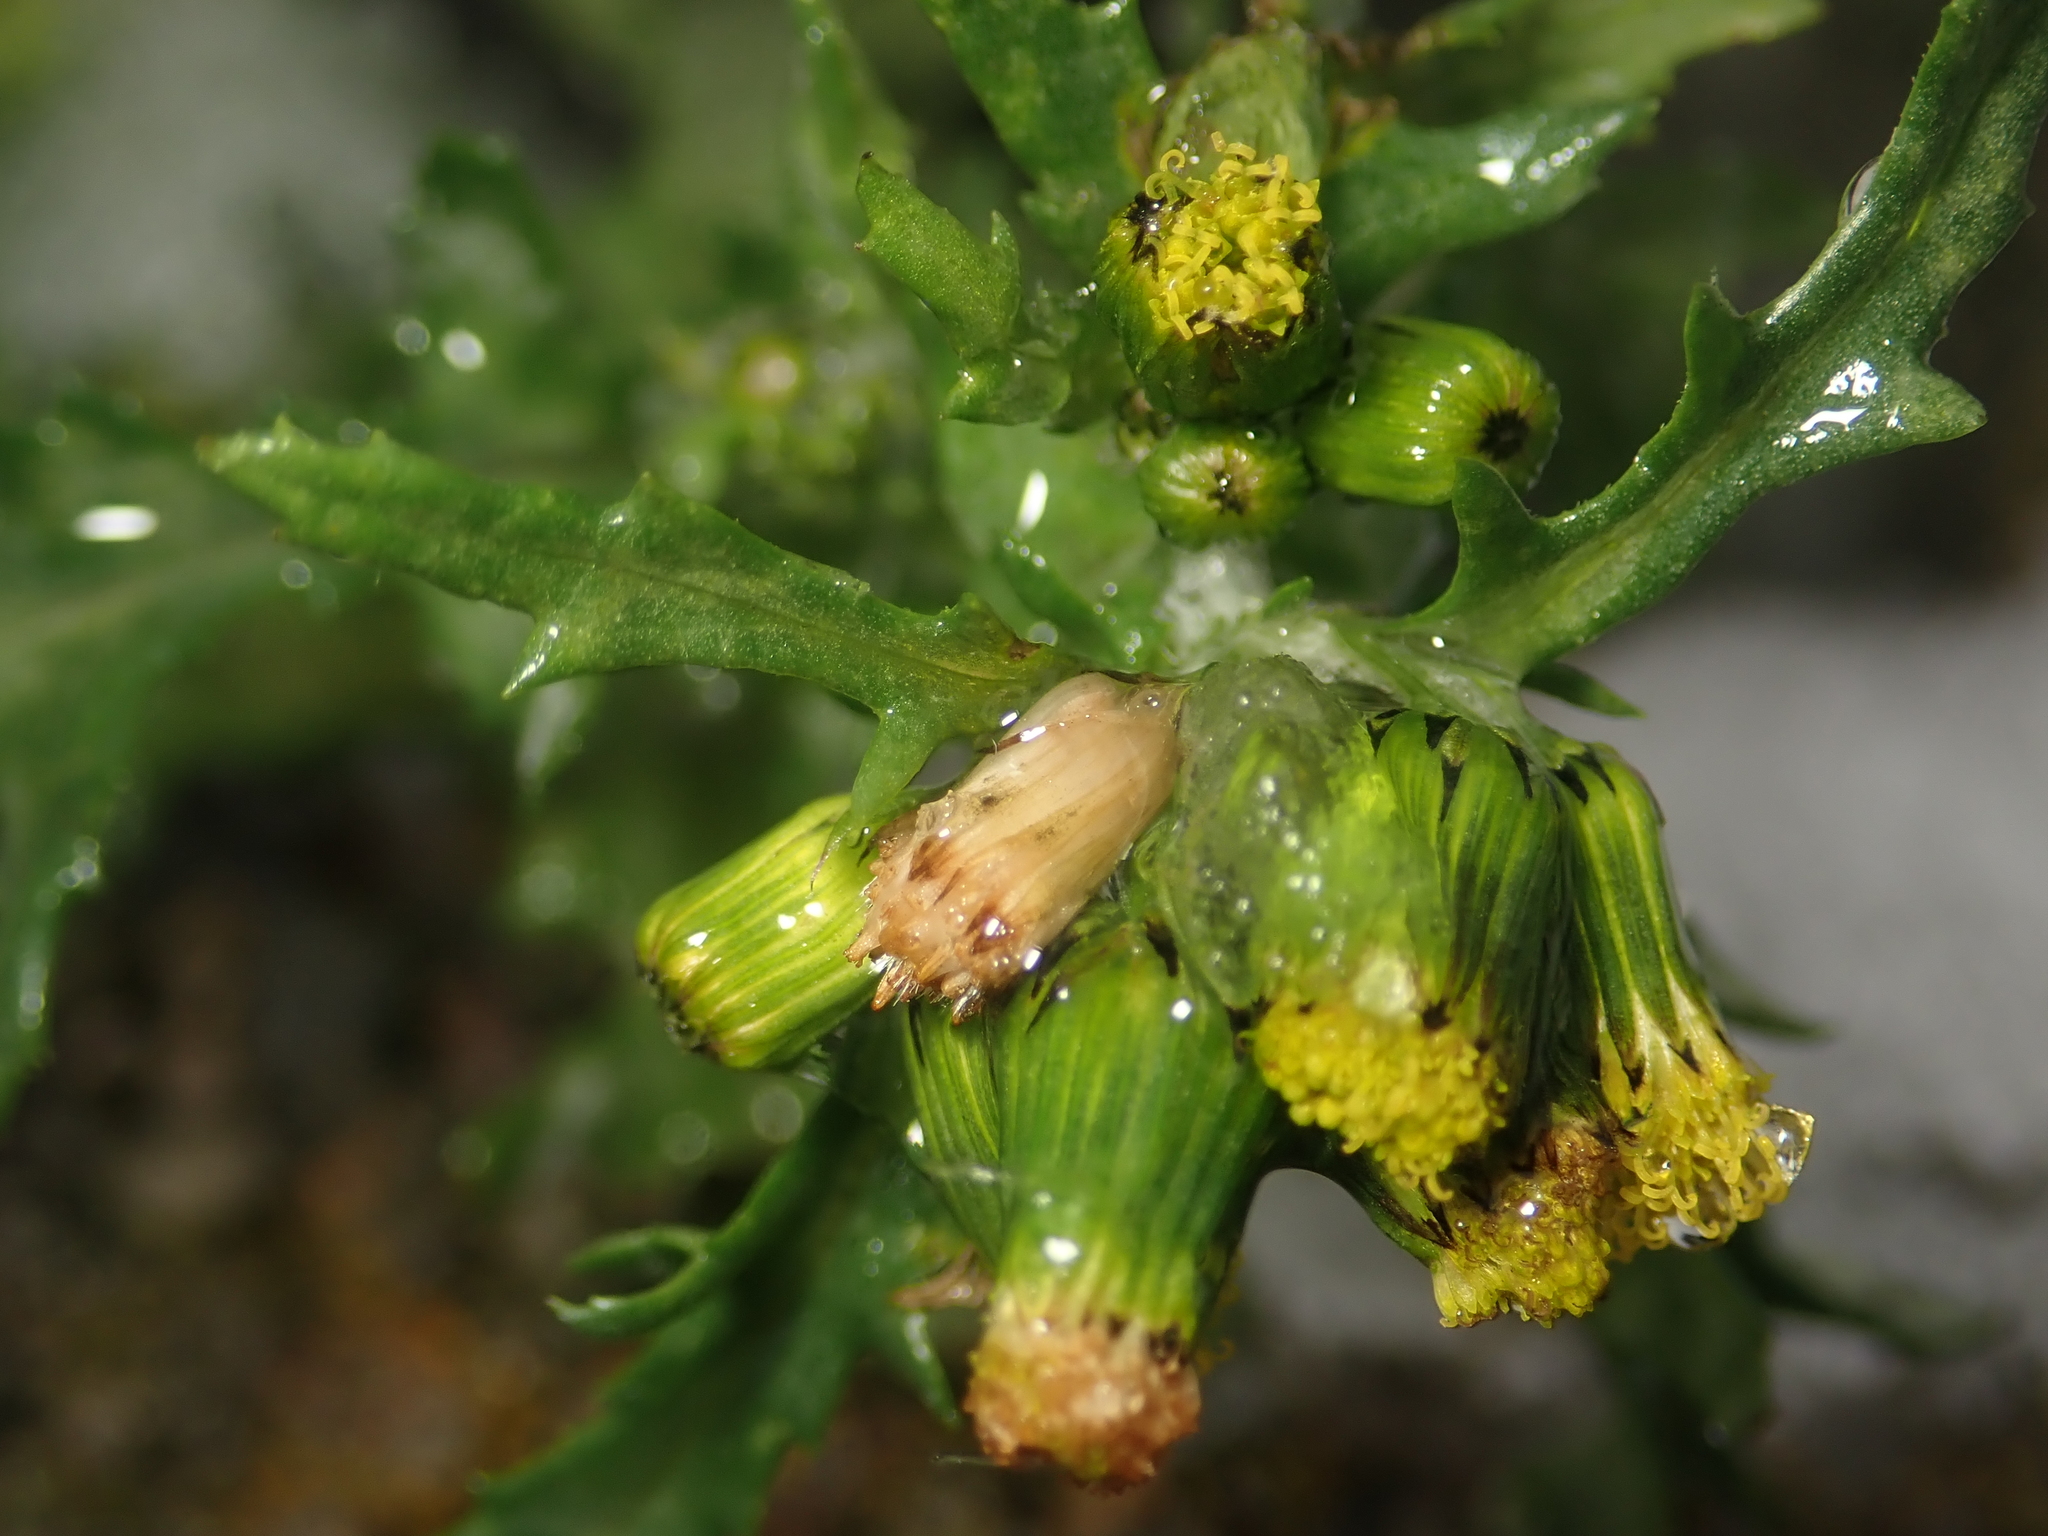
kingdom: Plantae
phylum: Tracheophyta
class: Magnoliopsida
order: Asterales
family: Asteraceae
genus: Senecio
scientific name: Senecio vulgaris
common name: Old-man-in-the-spring
